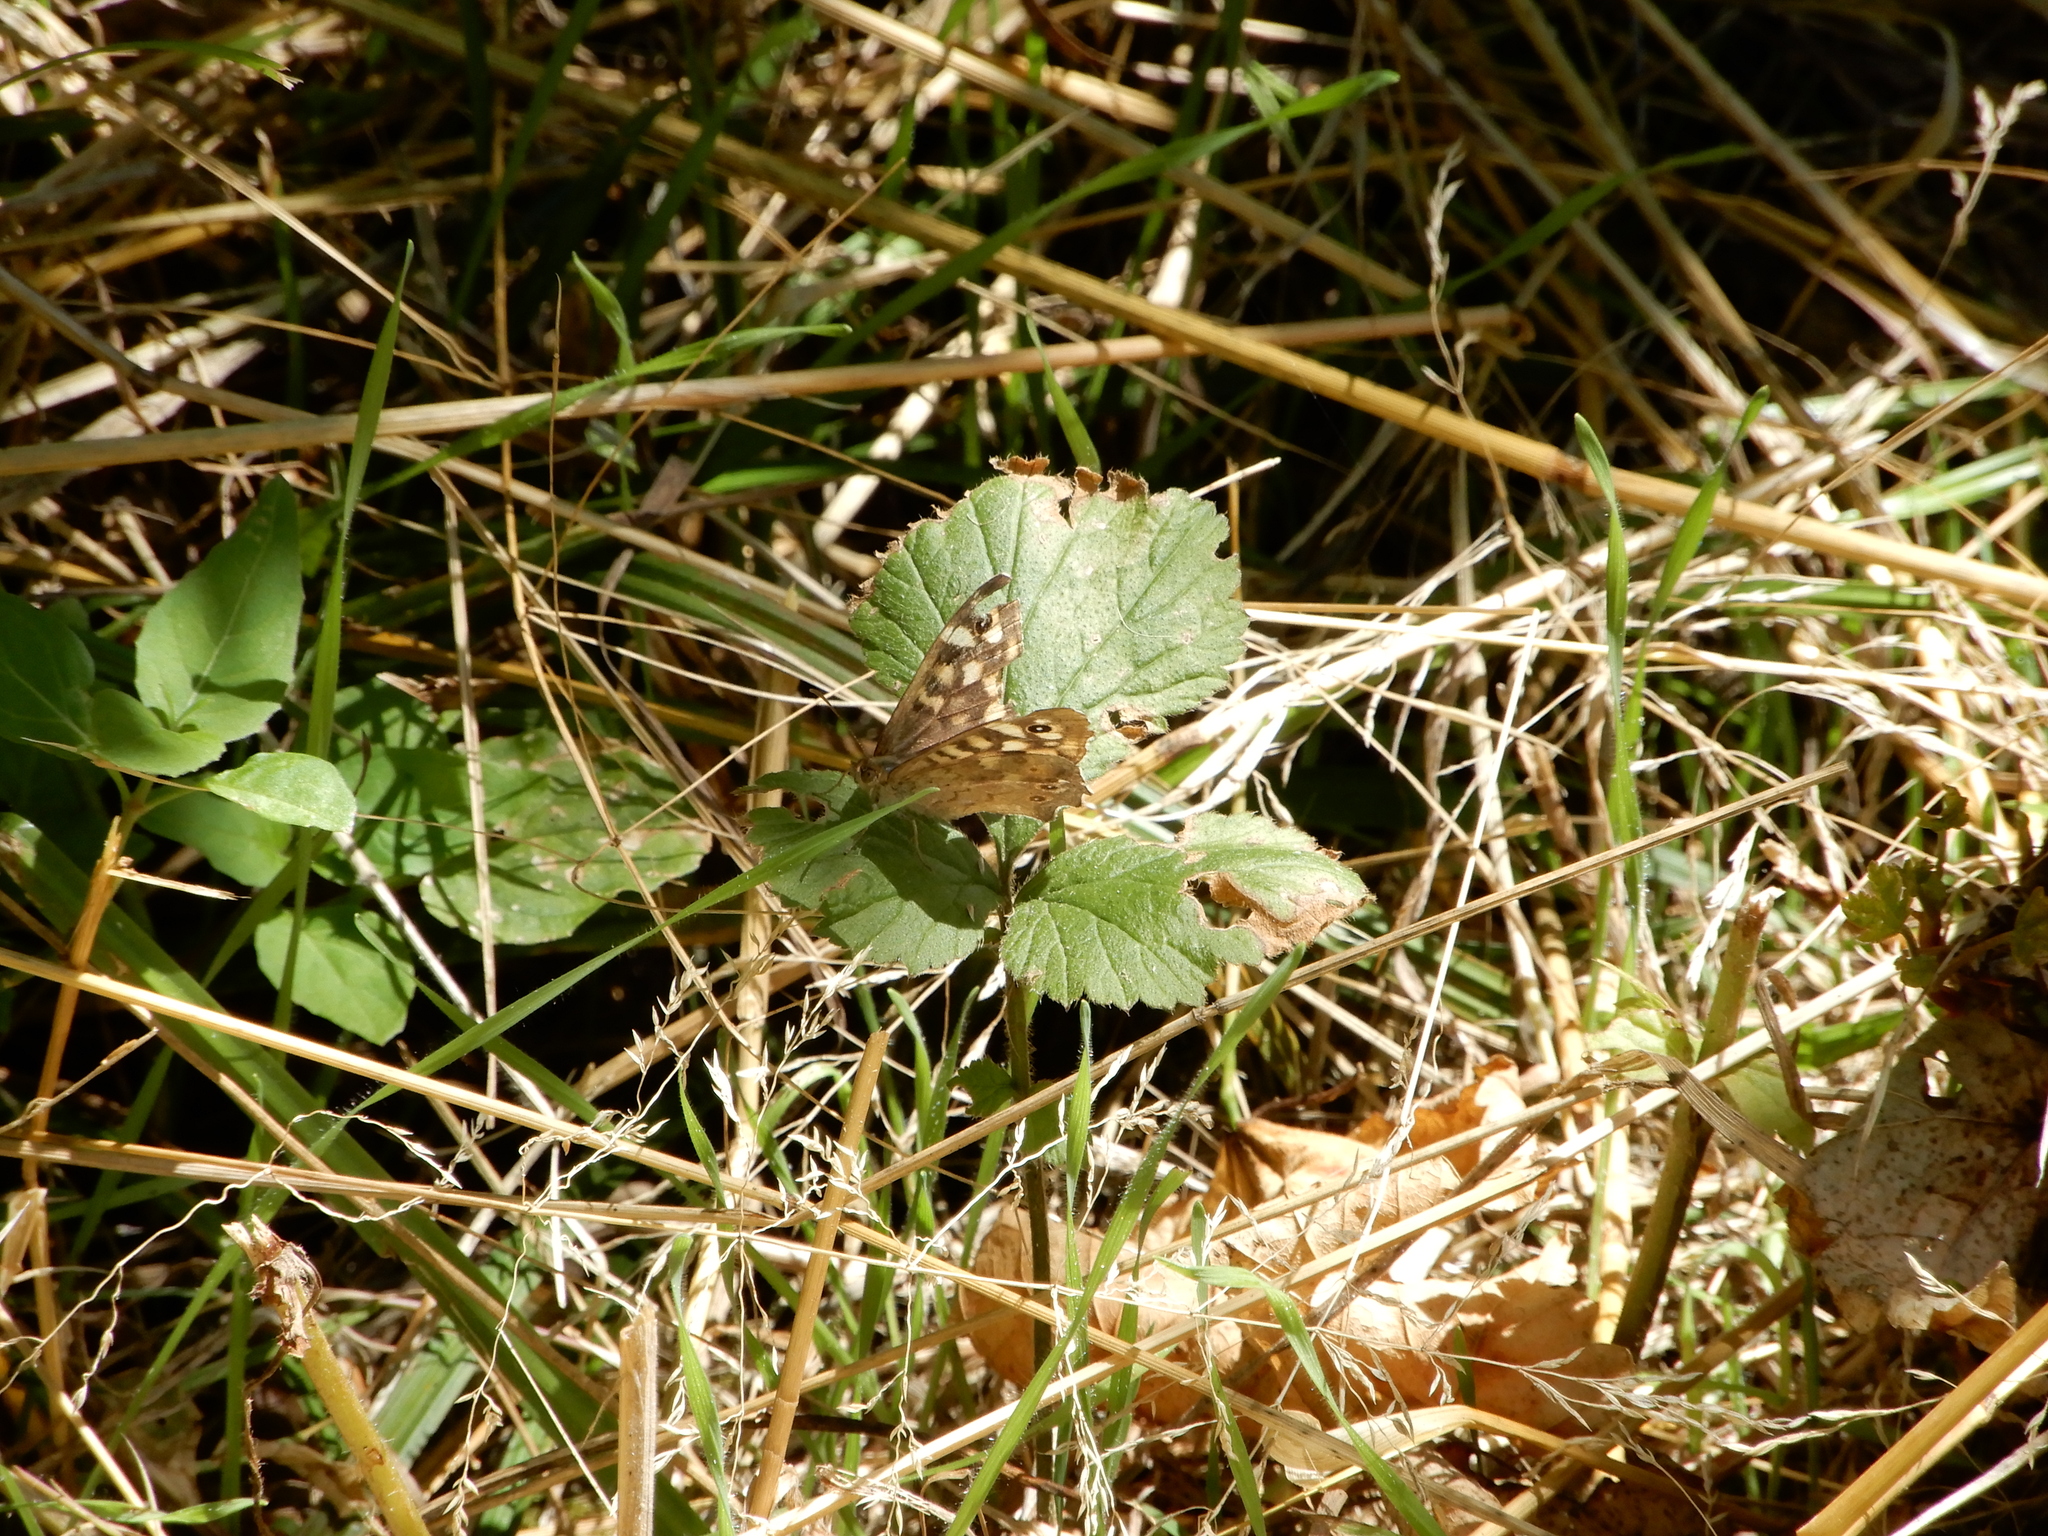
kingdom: Animalia
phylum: Arthropoda
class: Insecta
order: Lepidoptera
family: Nymphalidae
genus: Pararge
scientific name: Pararge aegeria
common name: Speckled wood
